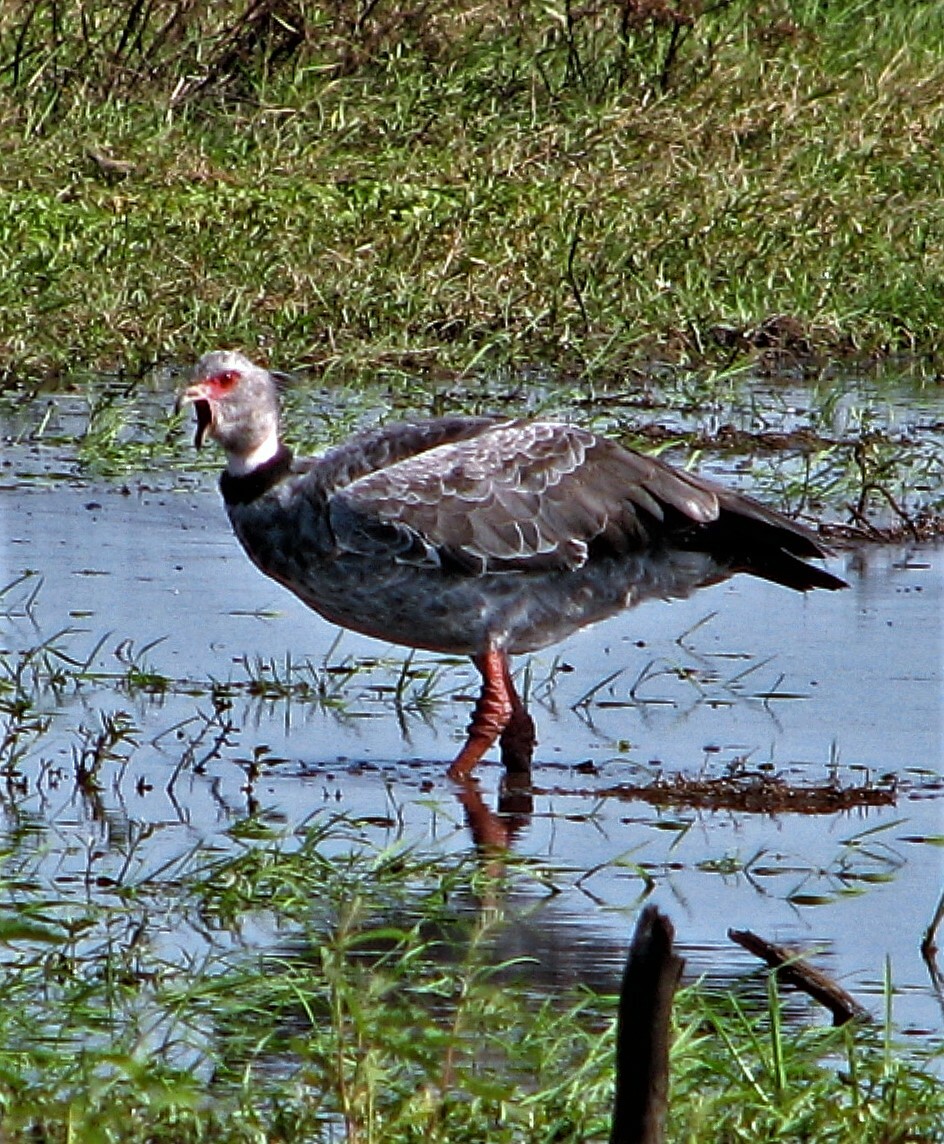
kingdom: Animalia
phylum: Chordata
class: Aves
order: Anseriformes
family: Anhimidae
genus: Chauna
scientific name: Chauna torquata
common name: Southern screamer
